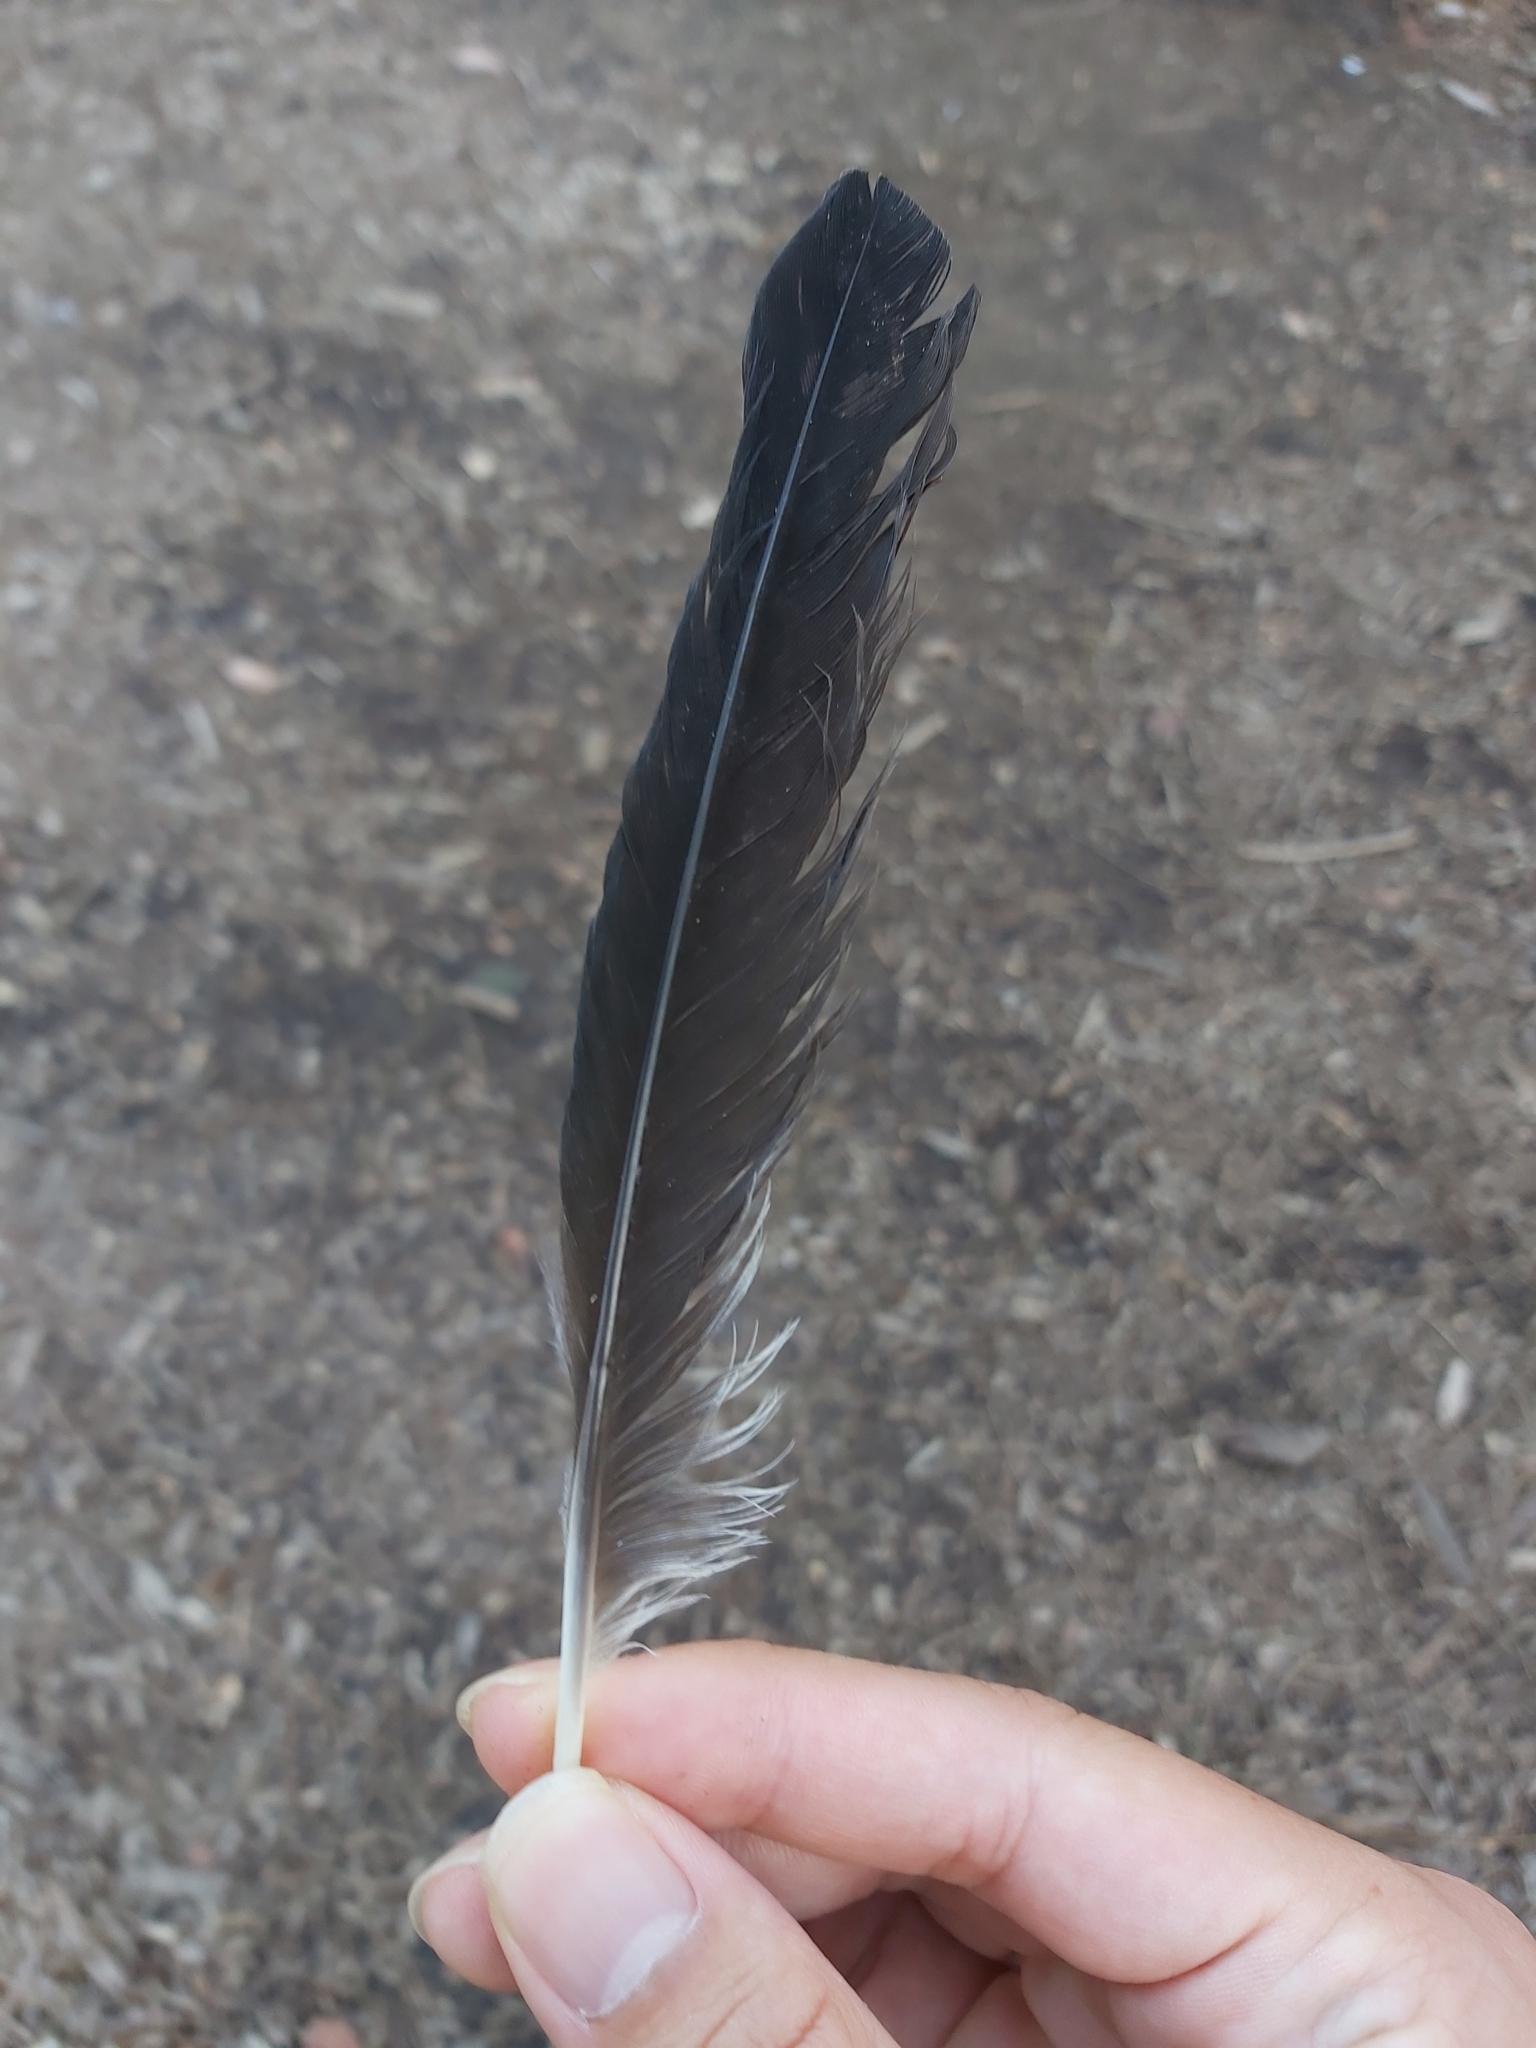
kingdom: Animalia
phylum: Chordata
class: Aves
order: Passeriformes
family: Cracticidae
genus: Gymnorhina
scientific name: Gymnorhina tibicen
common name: Australian magpie
